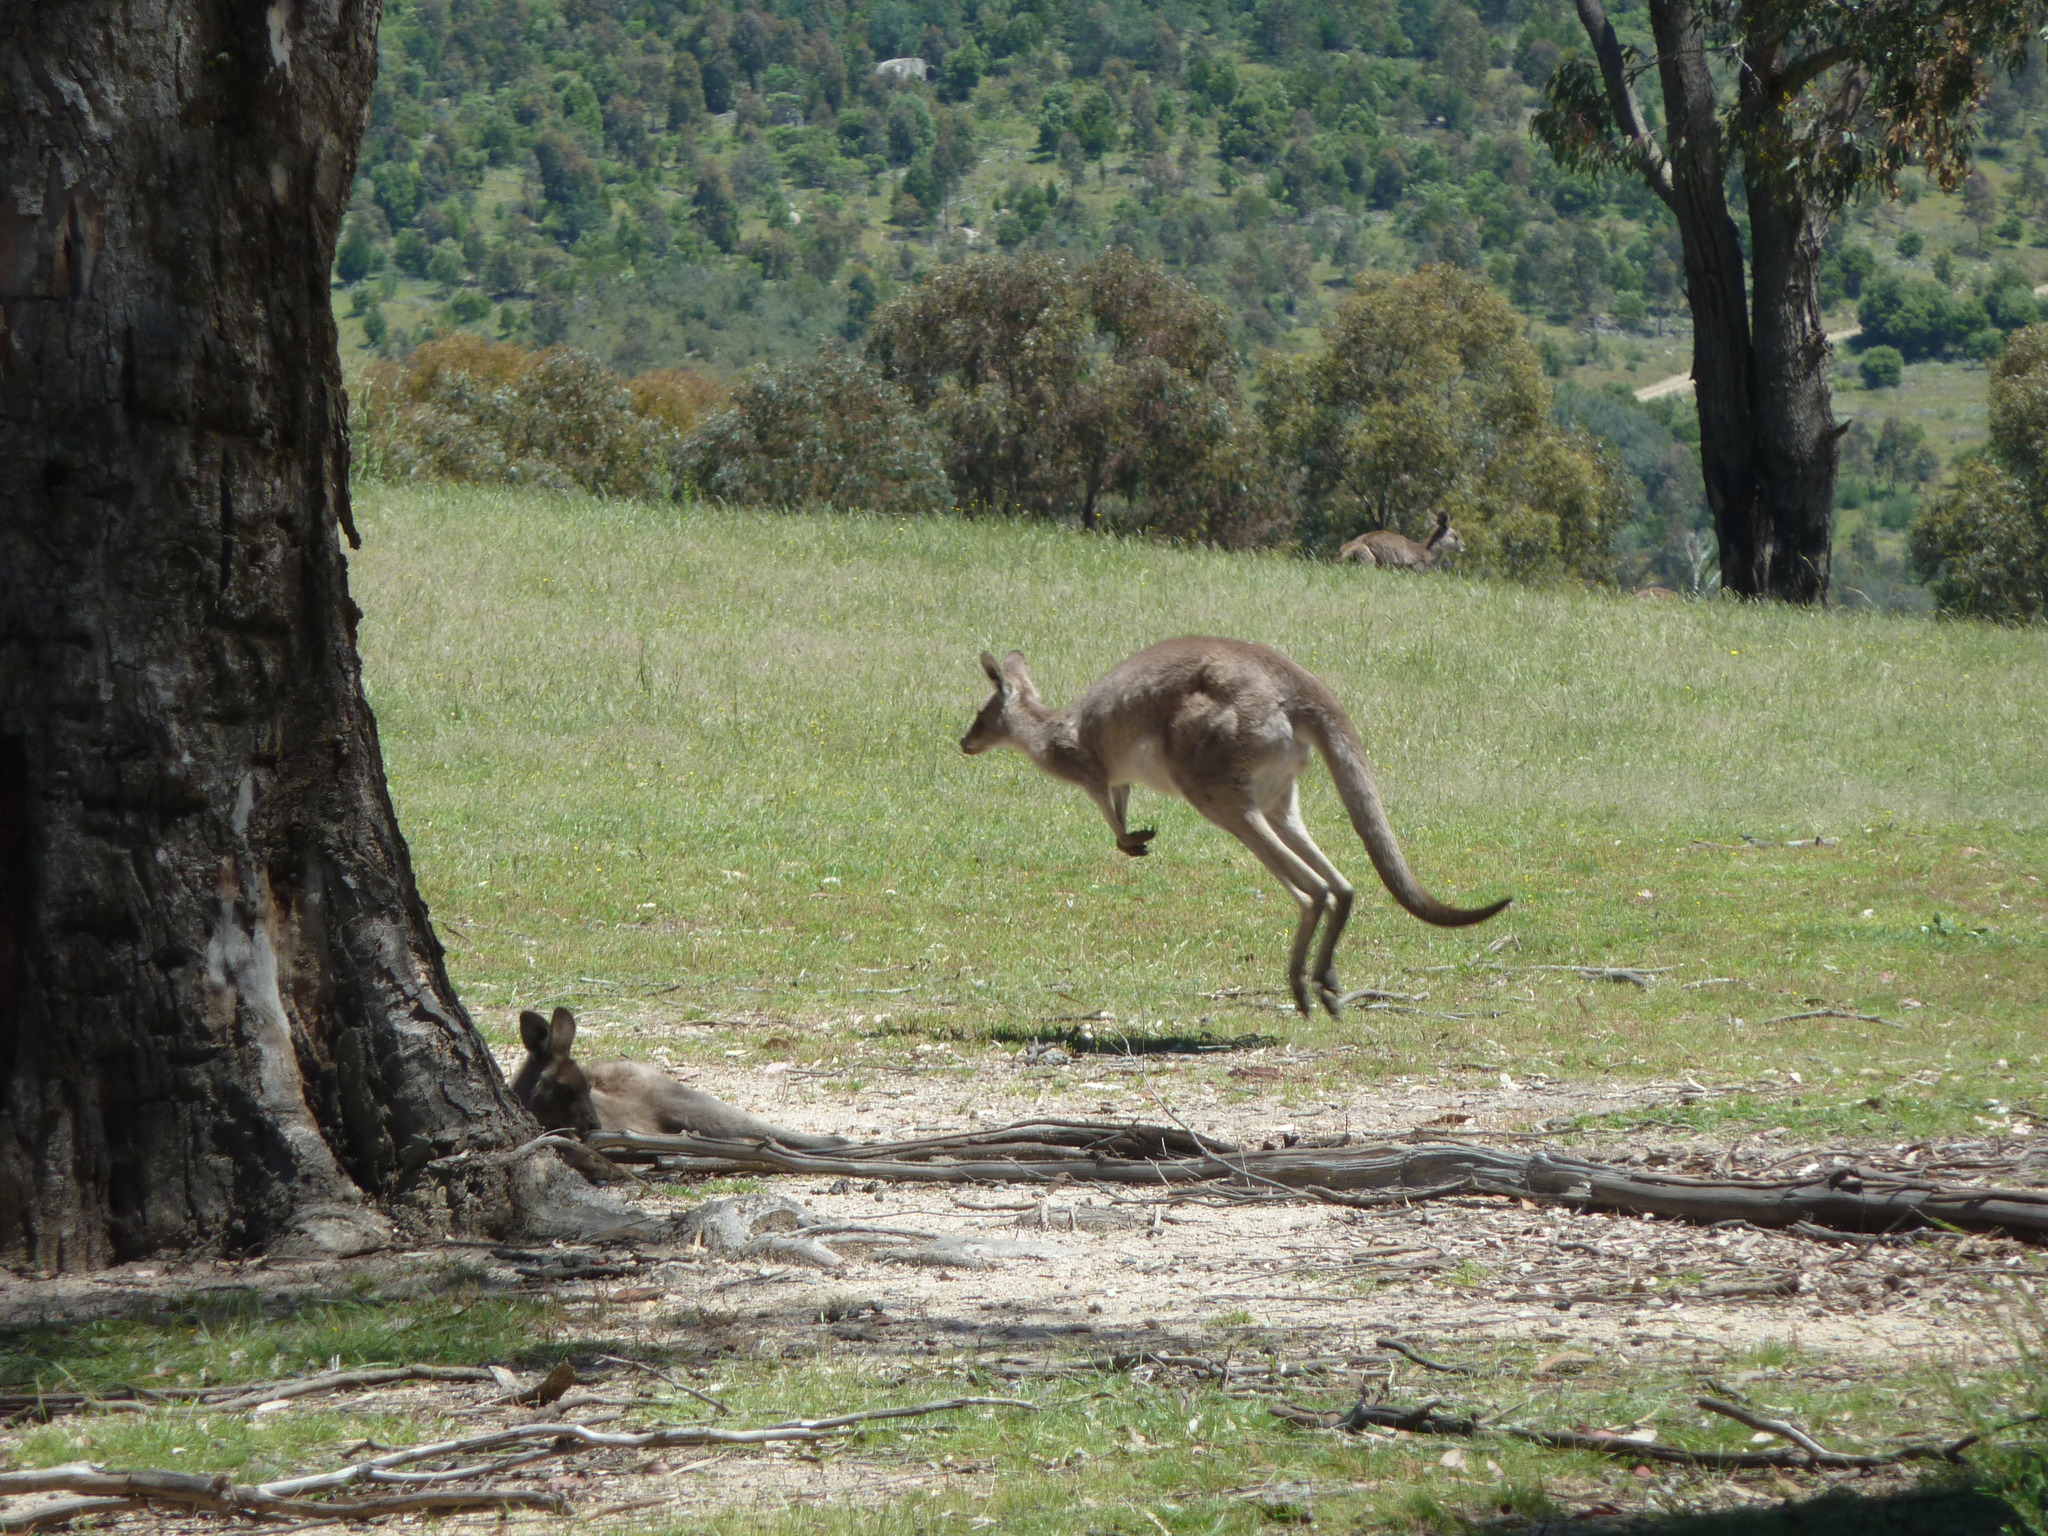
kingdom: Animalia
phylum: Chordata
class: Mammalia
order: Diprotodontia
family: Macropodidae
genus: Macropus
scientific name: Macropus giganteus
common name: Eastern grey kangaroo
